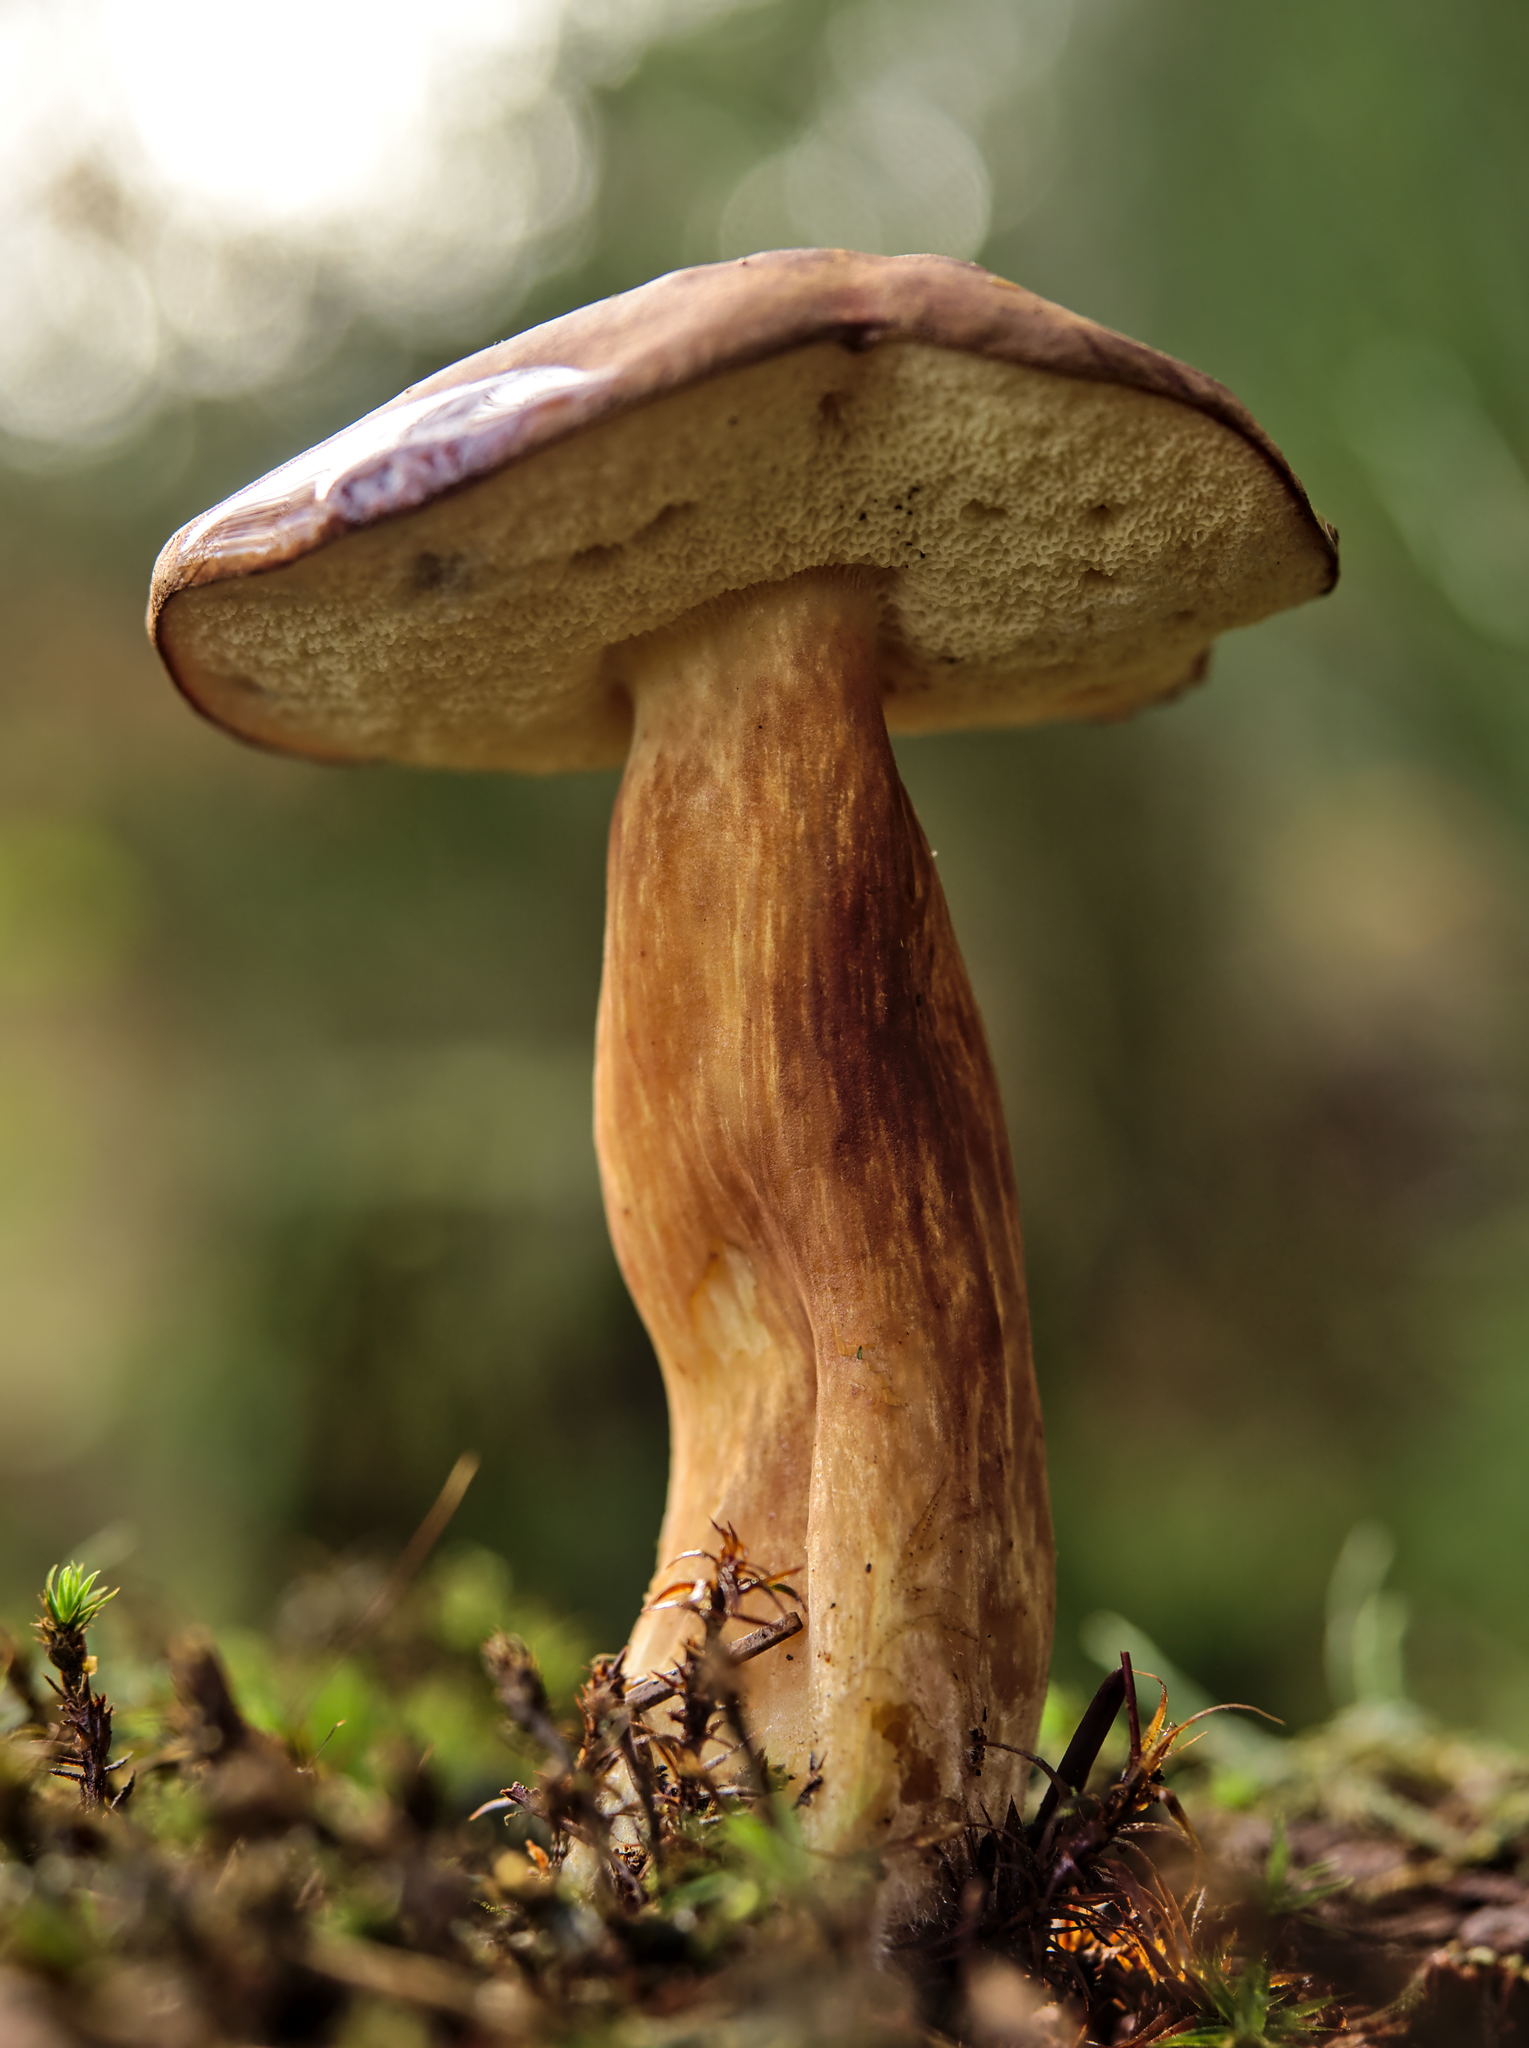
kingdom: Fungi
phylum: Basidiomycota
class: Agaricomycetes
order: Boletales
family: Boletaceae
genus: Imleria
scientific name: Imleria badia
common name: Bay bolete
